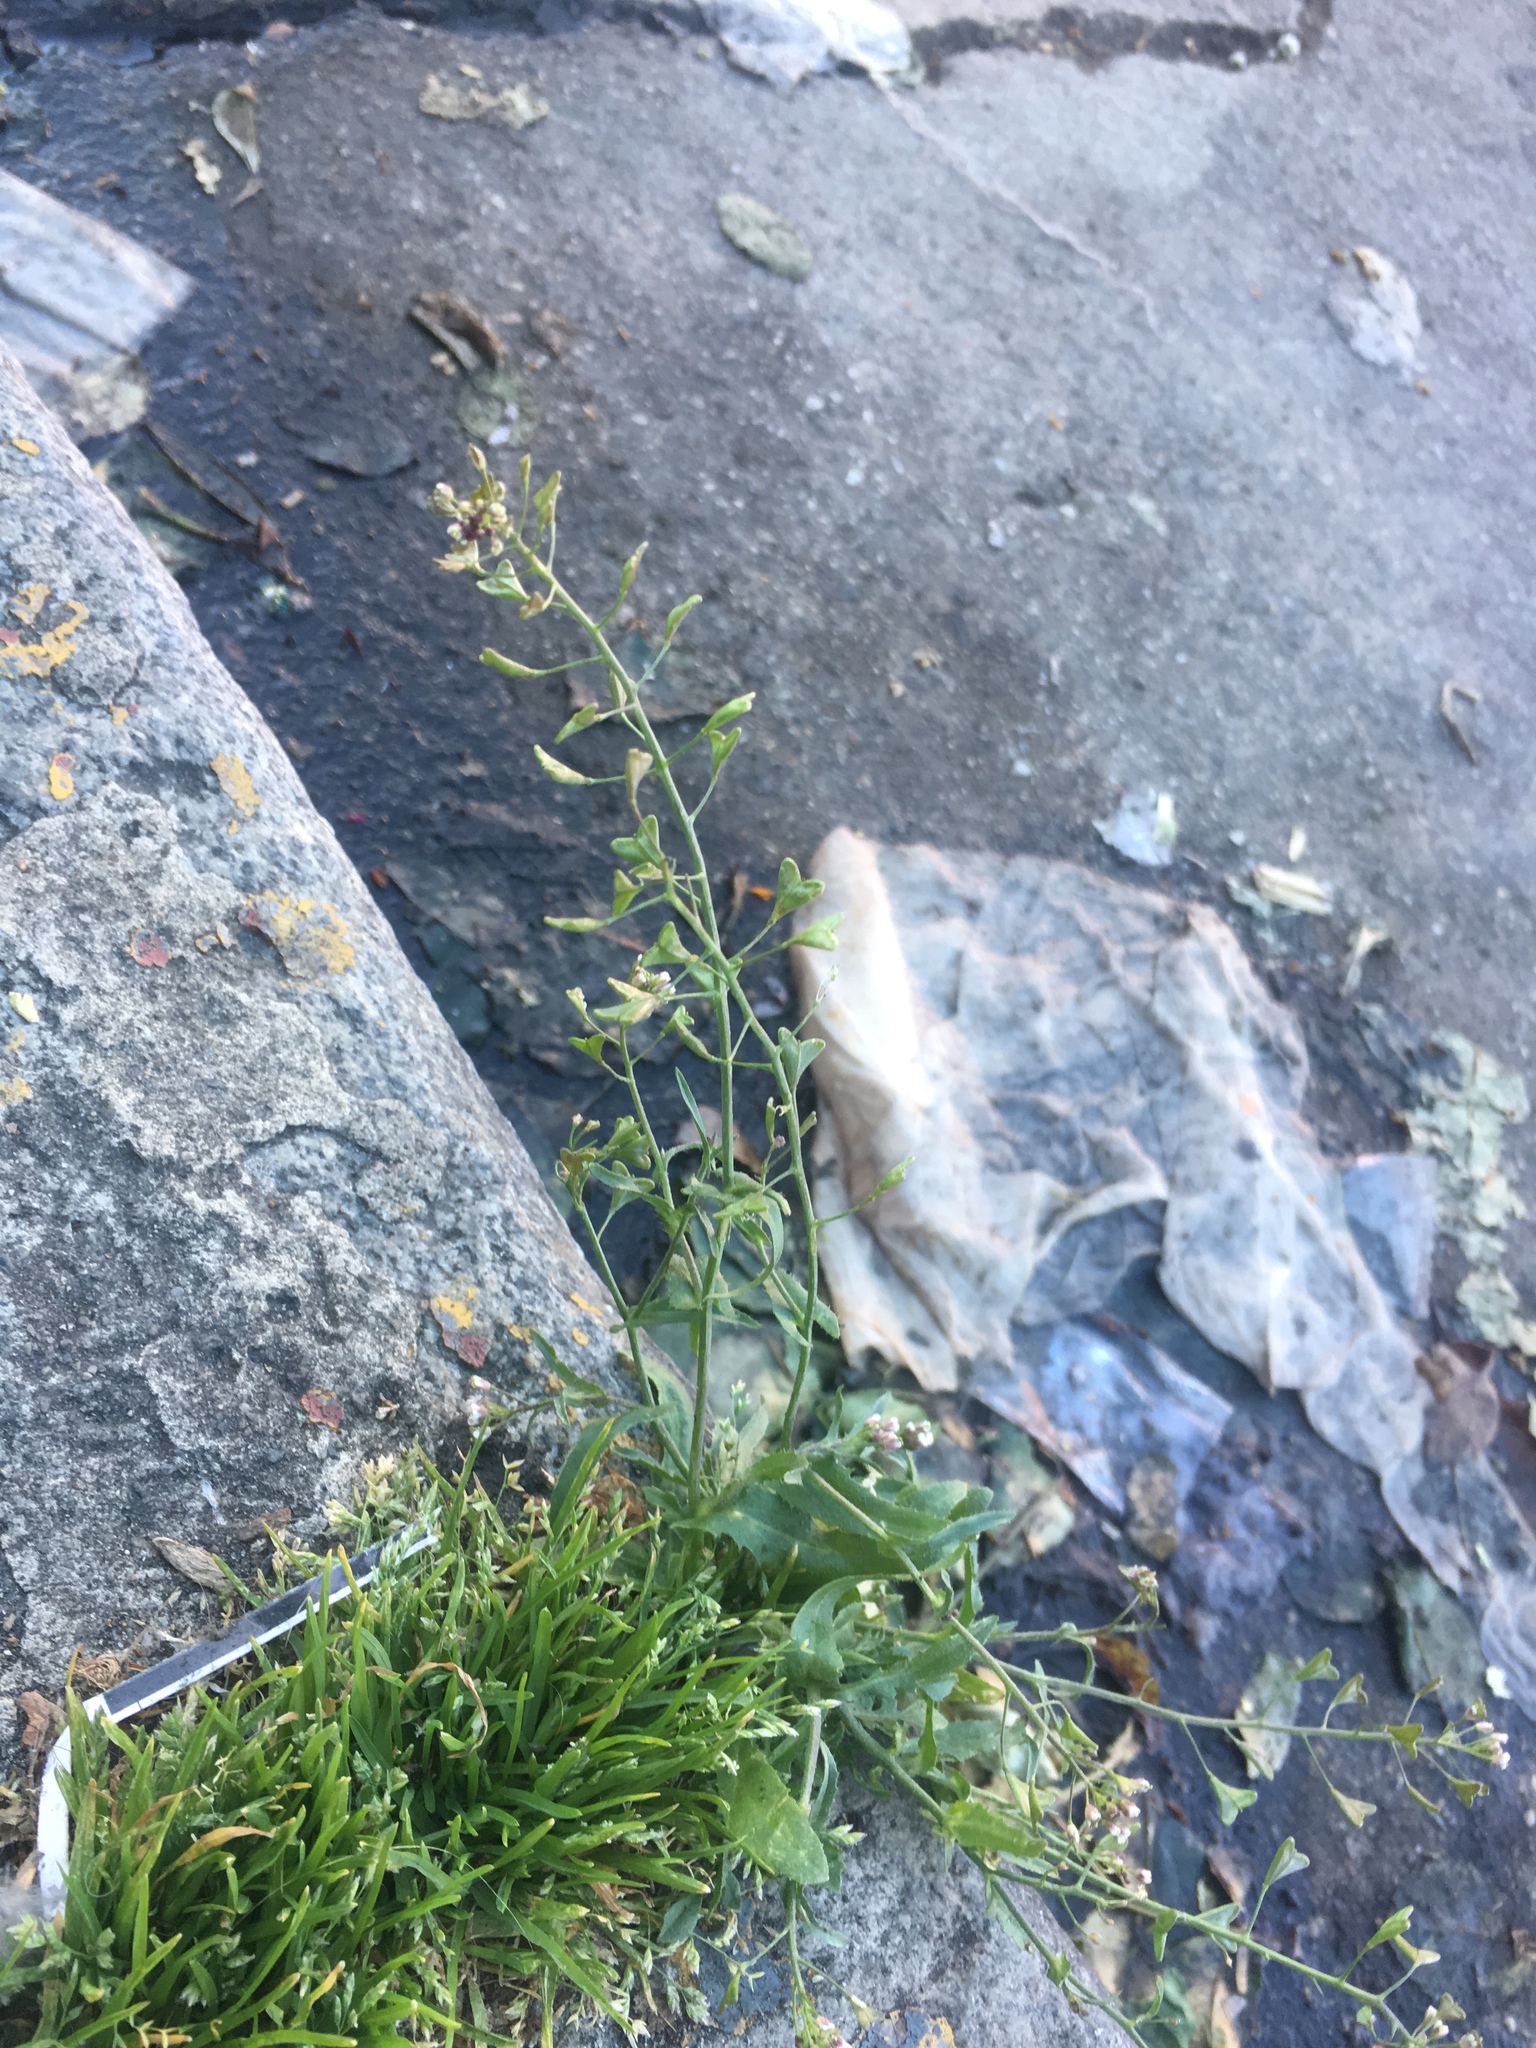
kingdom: Plantae
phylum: Tracheophyta
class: Magnoliopsida
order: Brassicales
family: Brassicaceae
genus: Capsella
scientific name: Capsella bursa-pastoris
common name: Shepherd's purse
